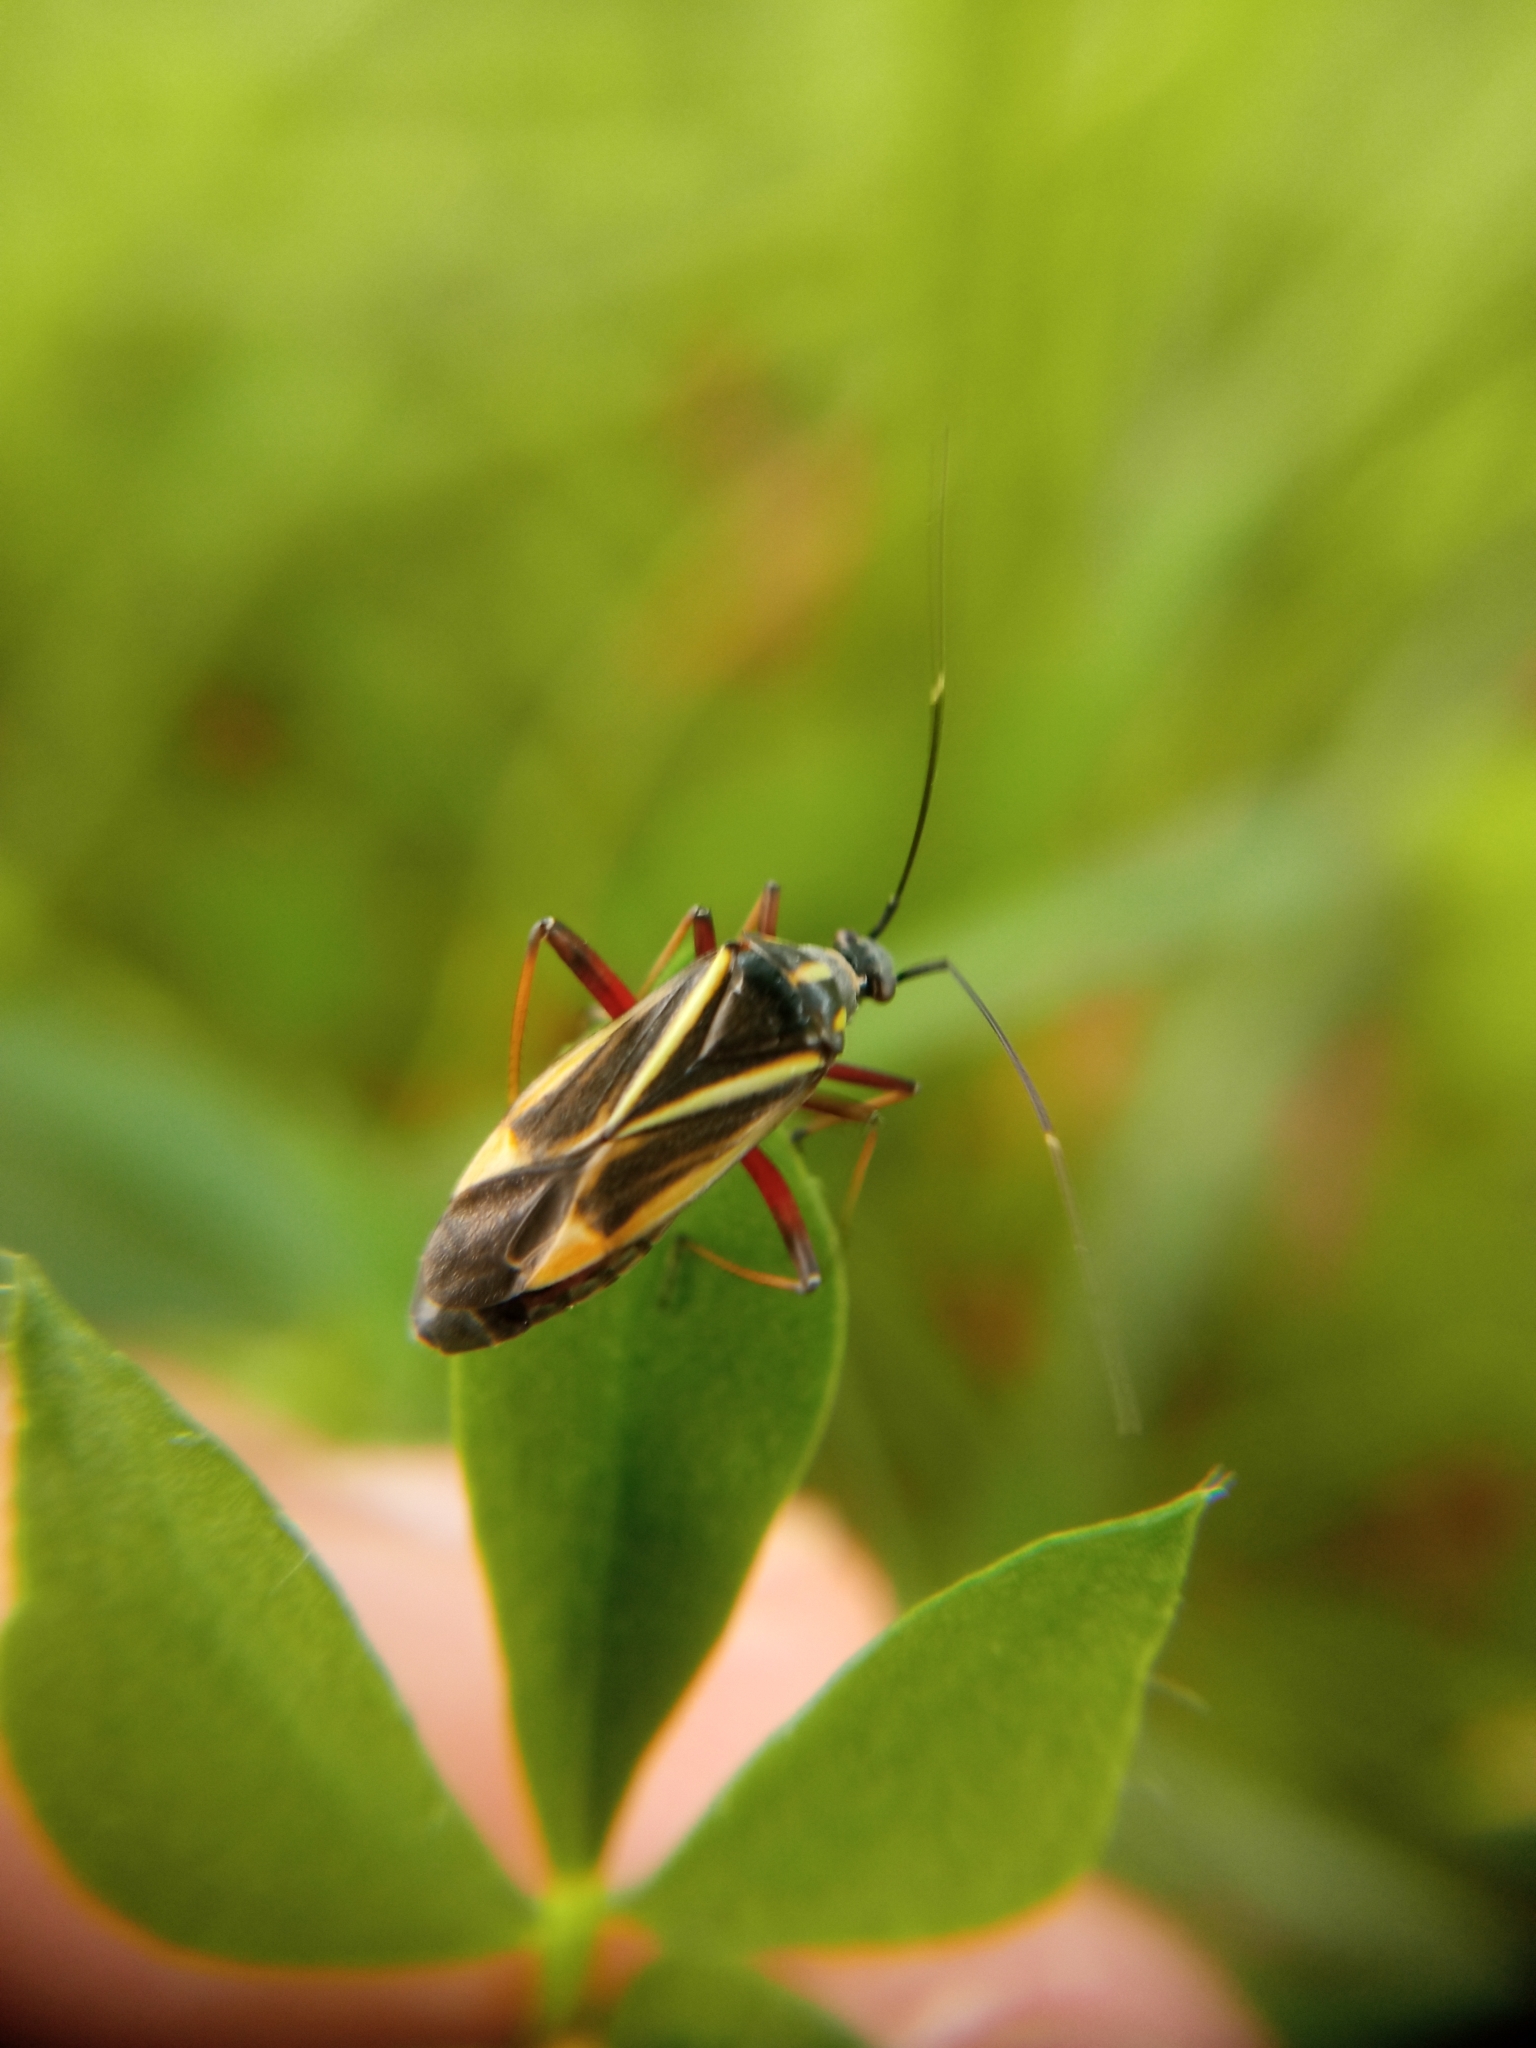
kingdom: Animalia
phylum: Arthropoda
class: Insecta
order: Hemiptera
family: Miridae
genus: Hadrodemus
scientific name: Hadrodemus m-flavum
